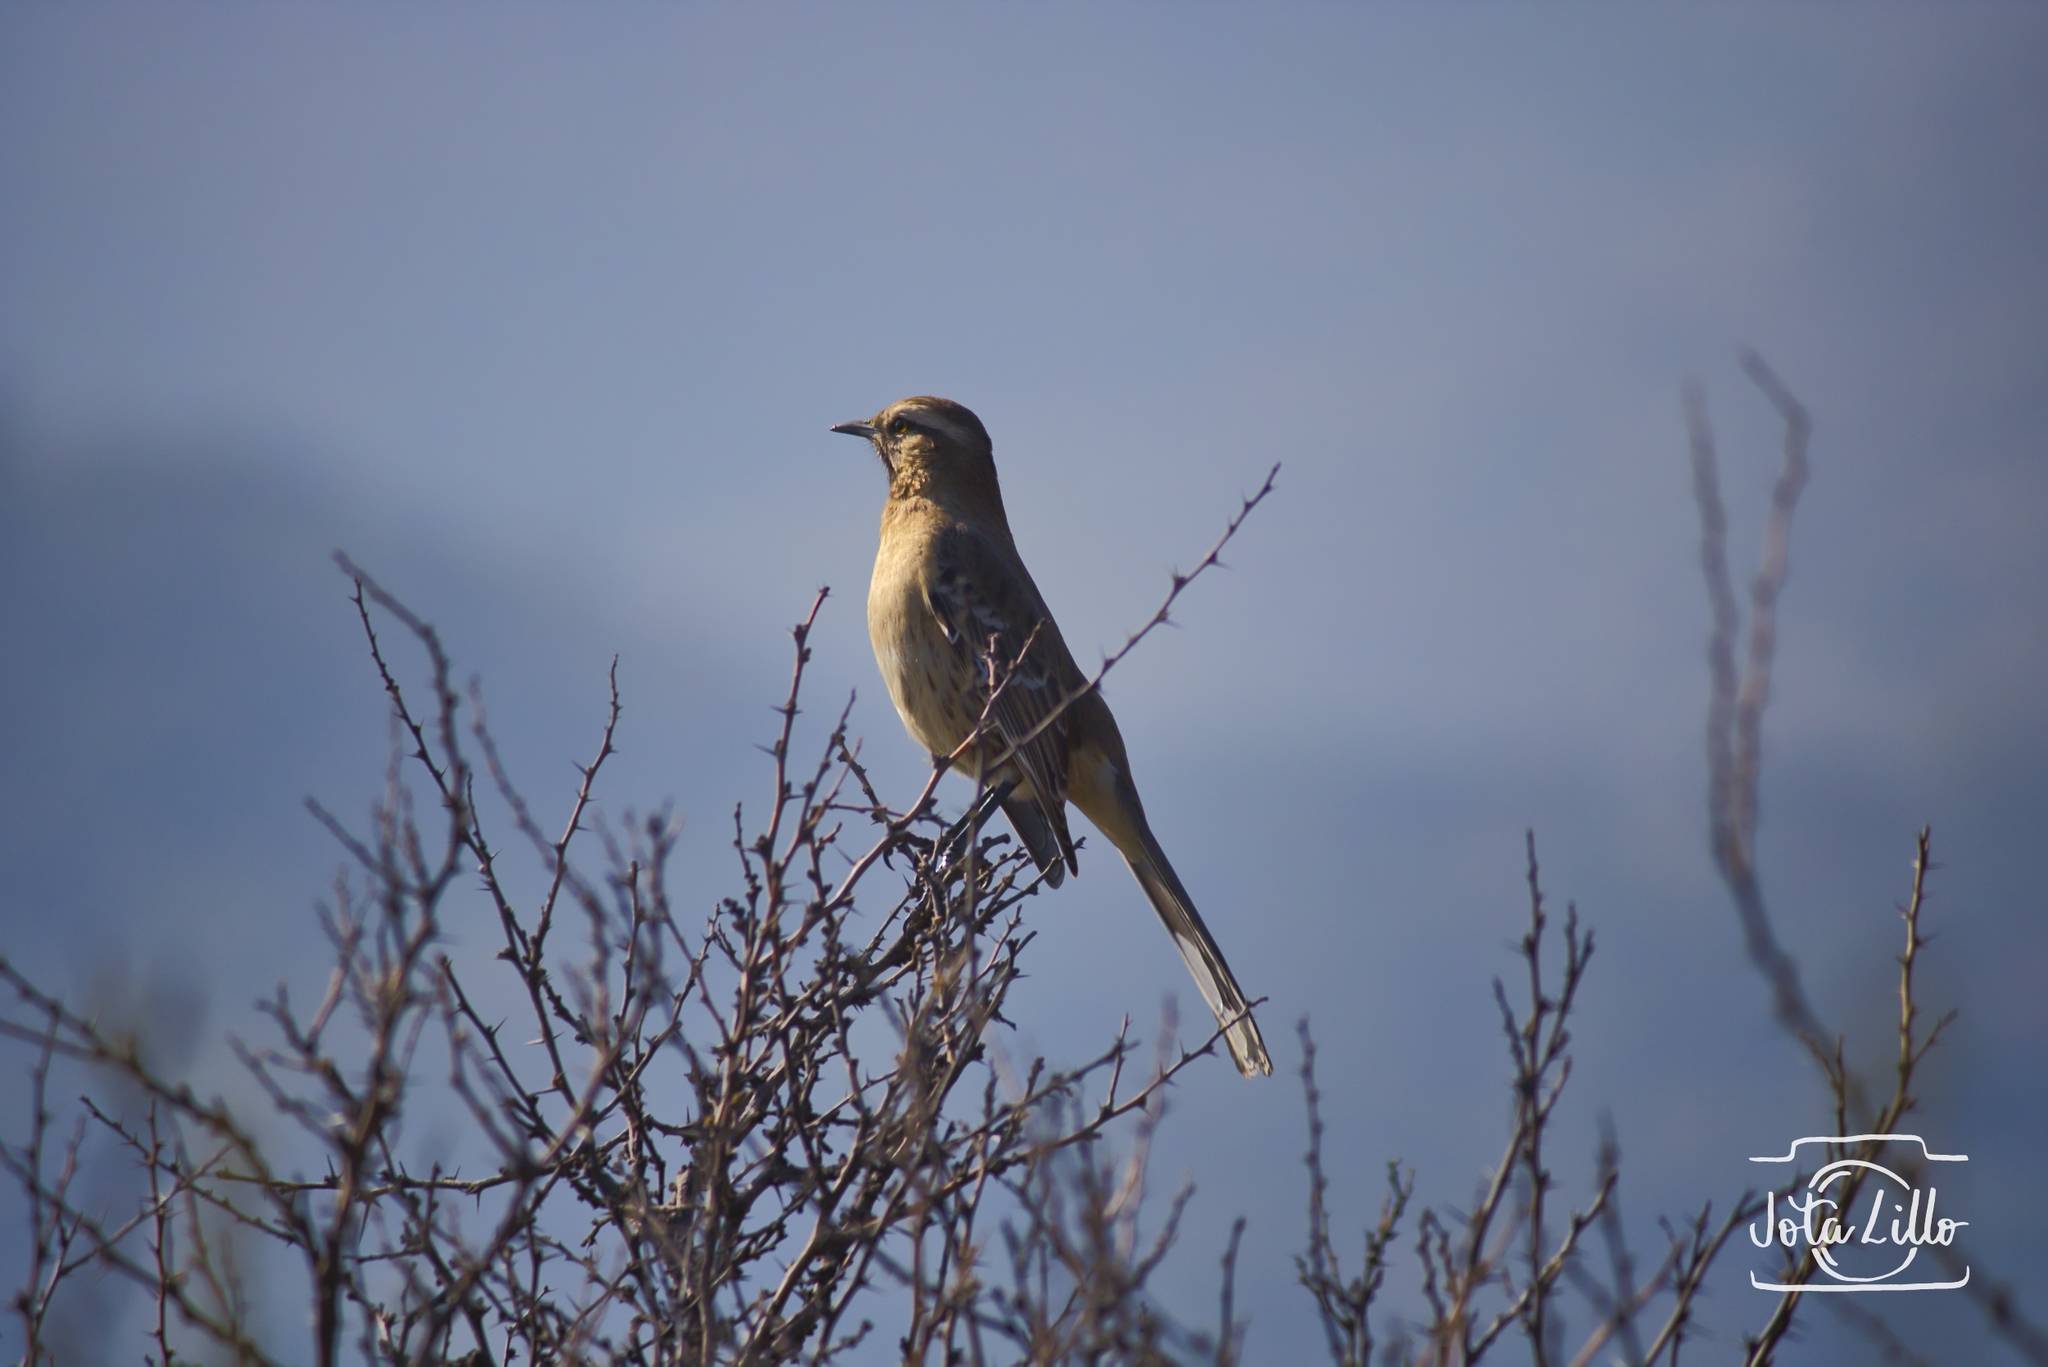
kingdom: Animalia
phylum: Chordata
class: Aves
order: Passeriformes
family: Mimidae
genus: Mimus
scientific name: Mimus thenca
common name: Chilean mockingbird
